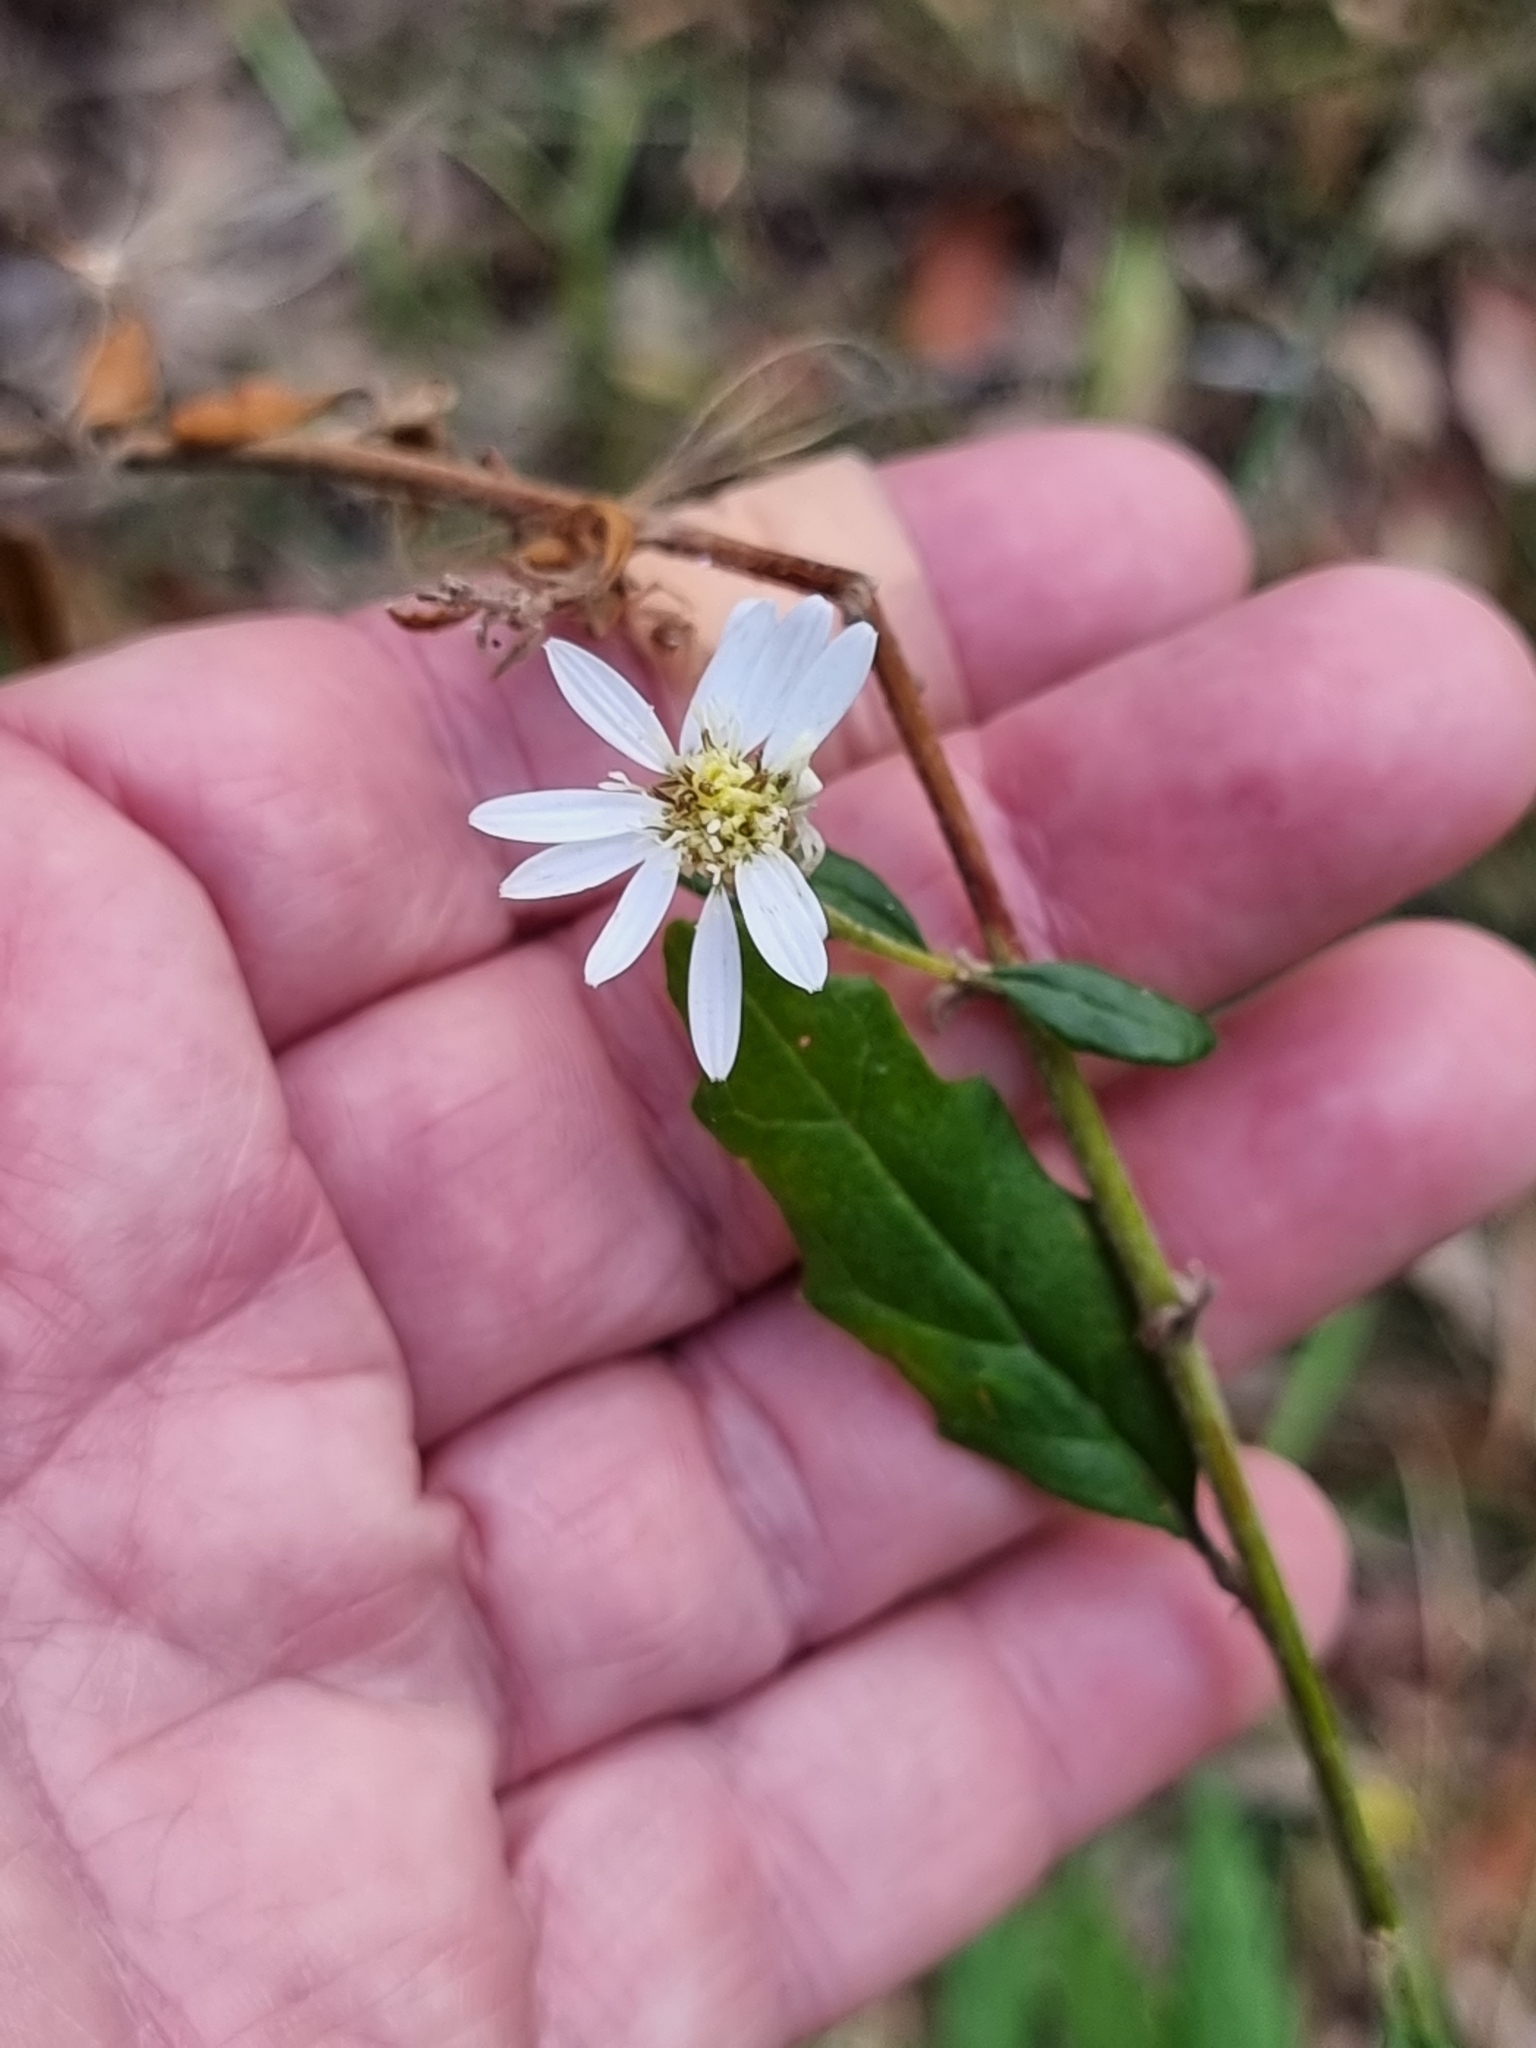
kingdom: Plantae
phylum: Tracheophyta
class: Magnoliopsida
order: Asterales
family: Asteraceae
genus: Olearia
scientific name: Olearia nernstii
